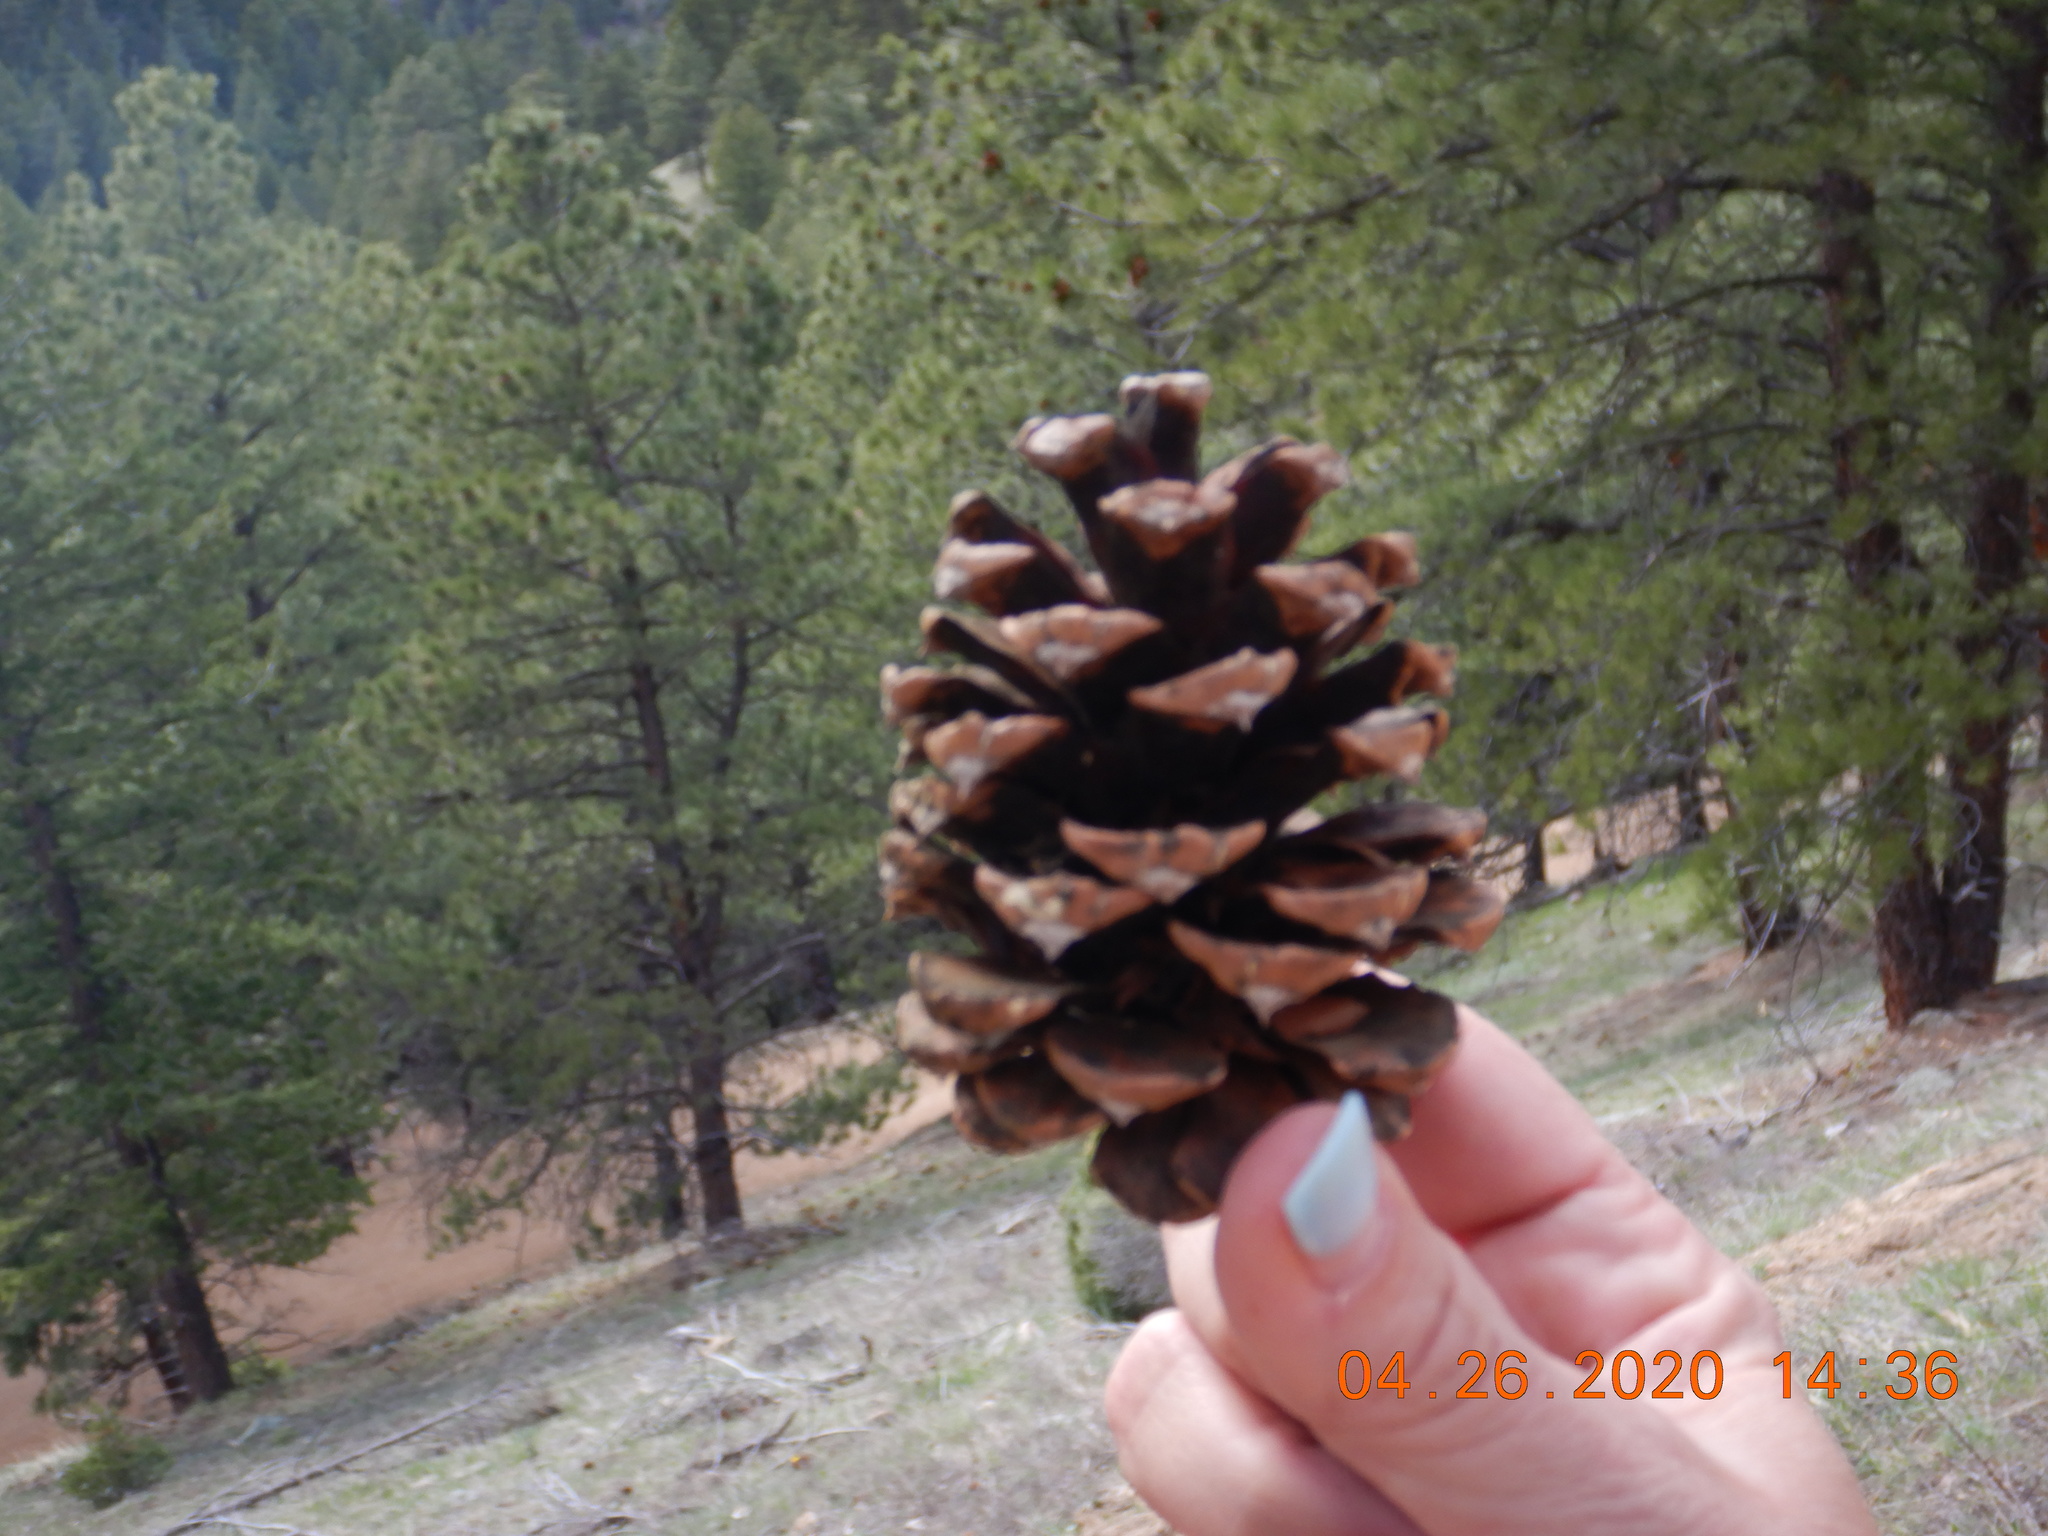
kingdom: Plantae
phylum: Tracheophyta
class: Pinopsida
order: Pinales
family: Pinaceae
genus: Pinus
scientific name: Pinus ponderosa
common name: Western yellow-pine
